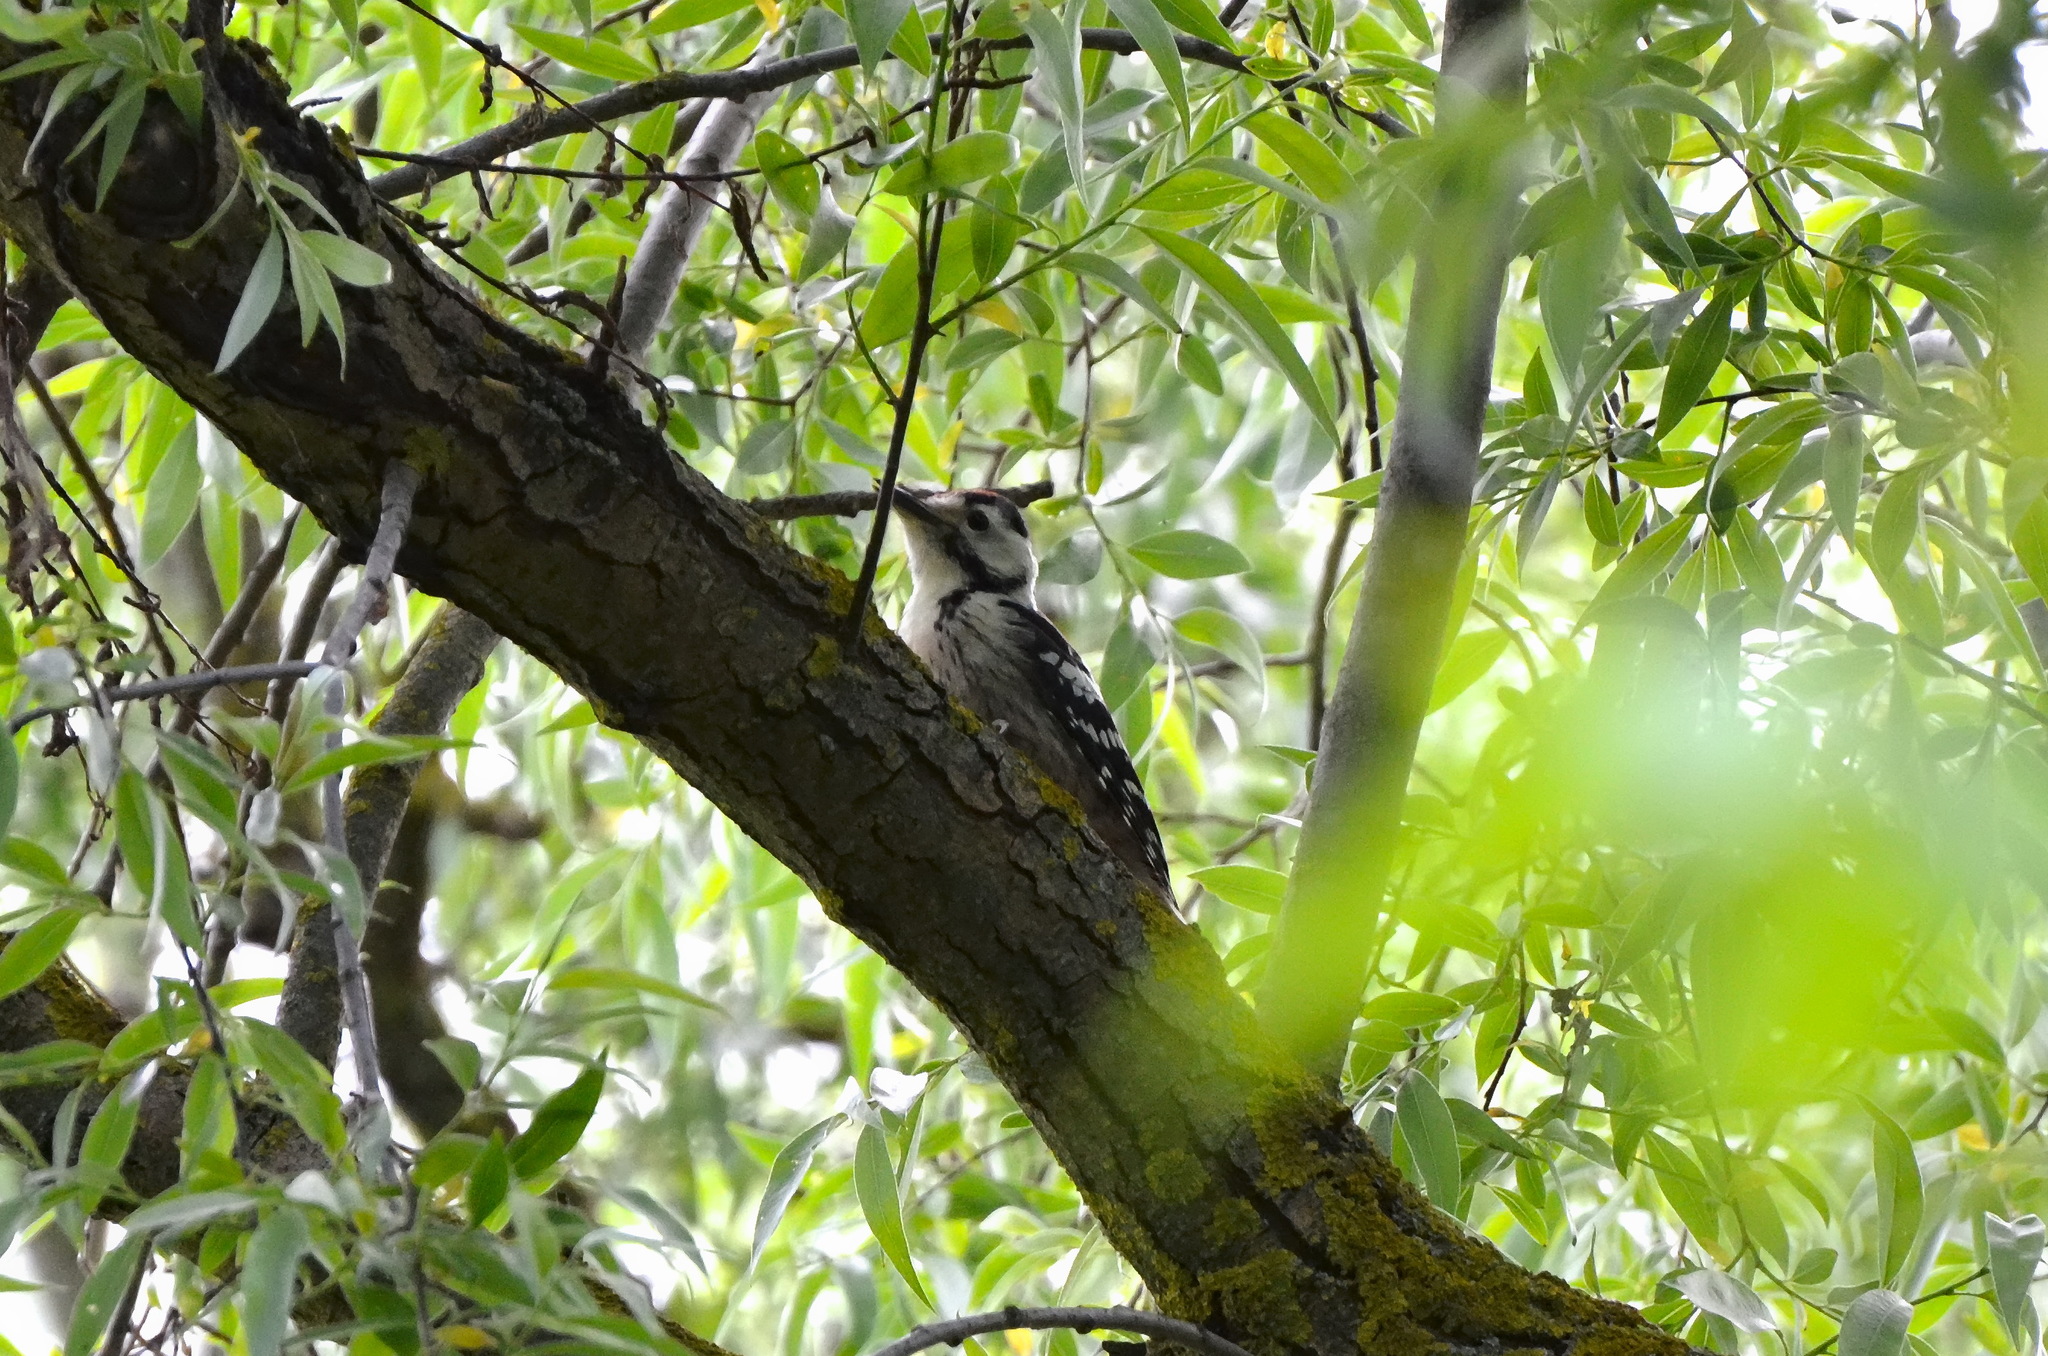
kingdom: Animalia
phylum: Chordata
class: Aves
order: Piciformes
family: Picidae
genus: Dryobates
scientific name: Dryobates minor
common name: Lesser spotted woodpecker
